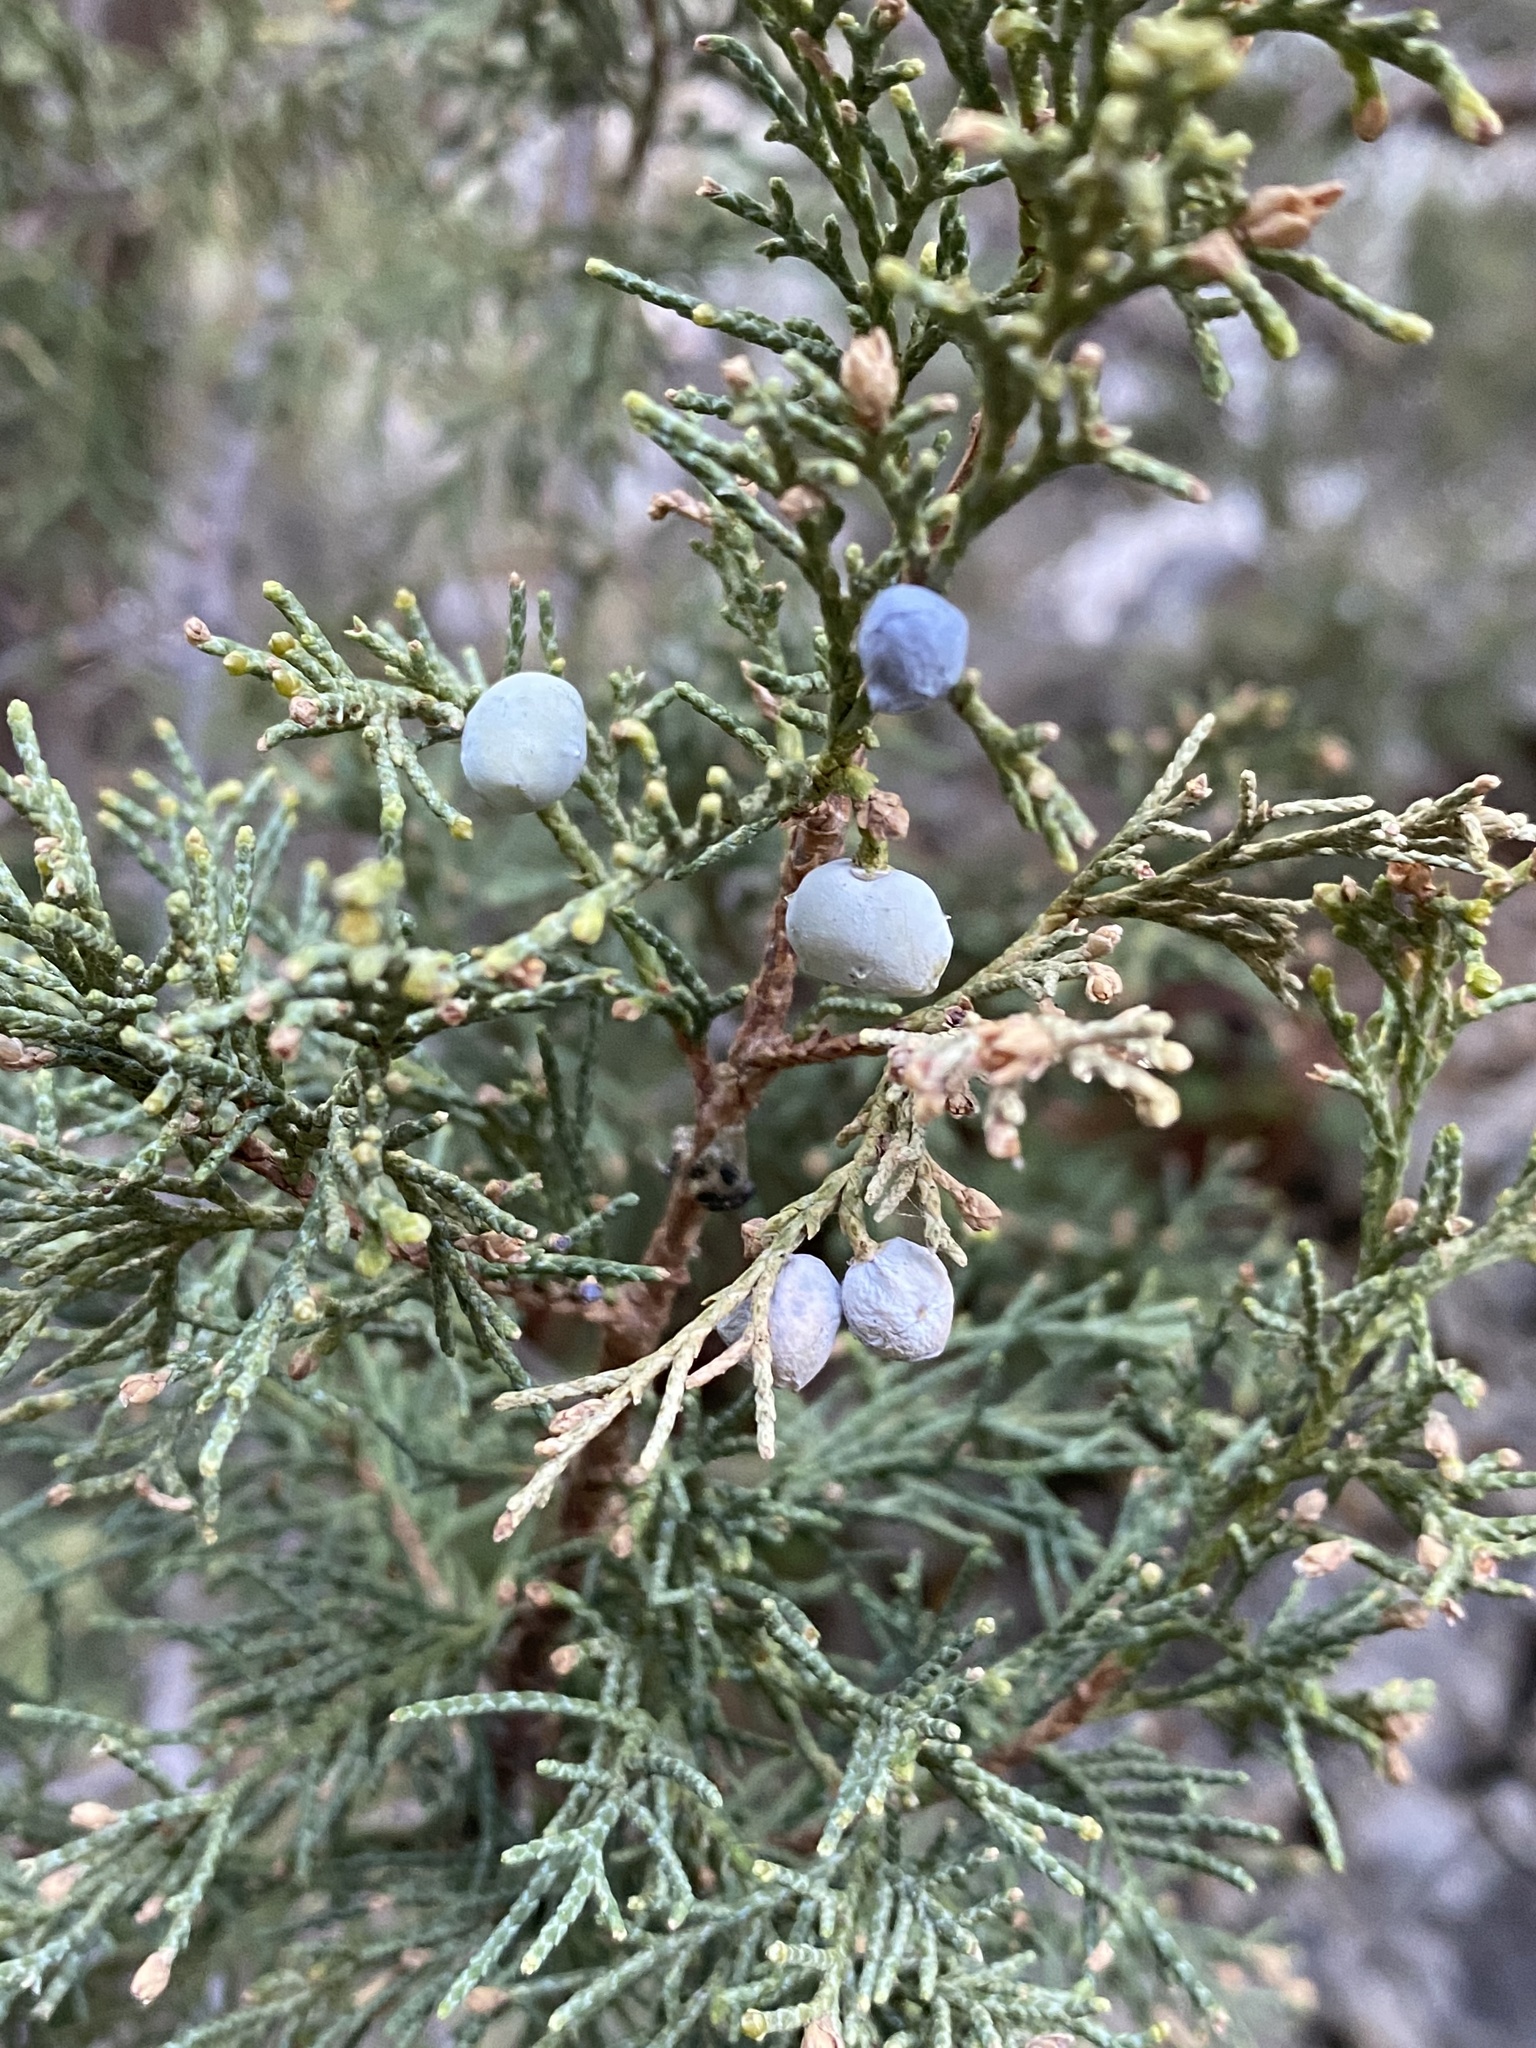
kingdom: Plantae
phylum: Tracheophyta
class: Pinopsida
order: Pinales
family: Cupressaceae
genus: Juniperus
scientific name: Juniperus scopulorum
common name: Rocky mountain juniper
